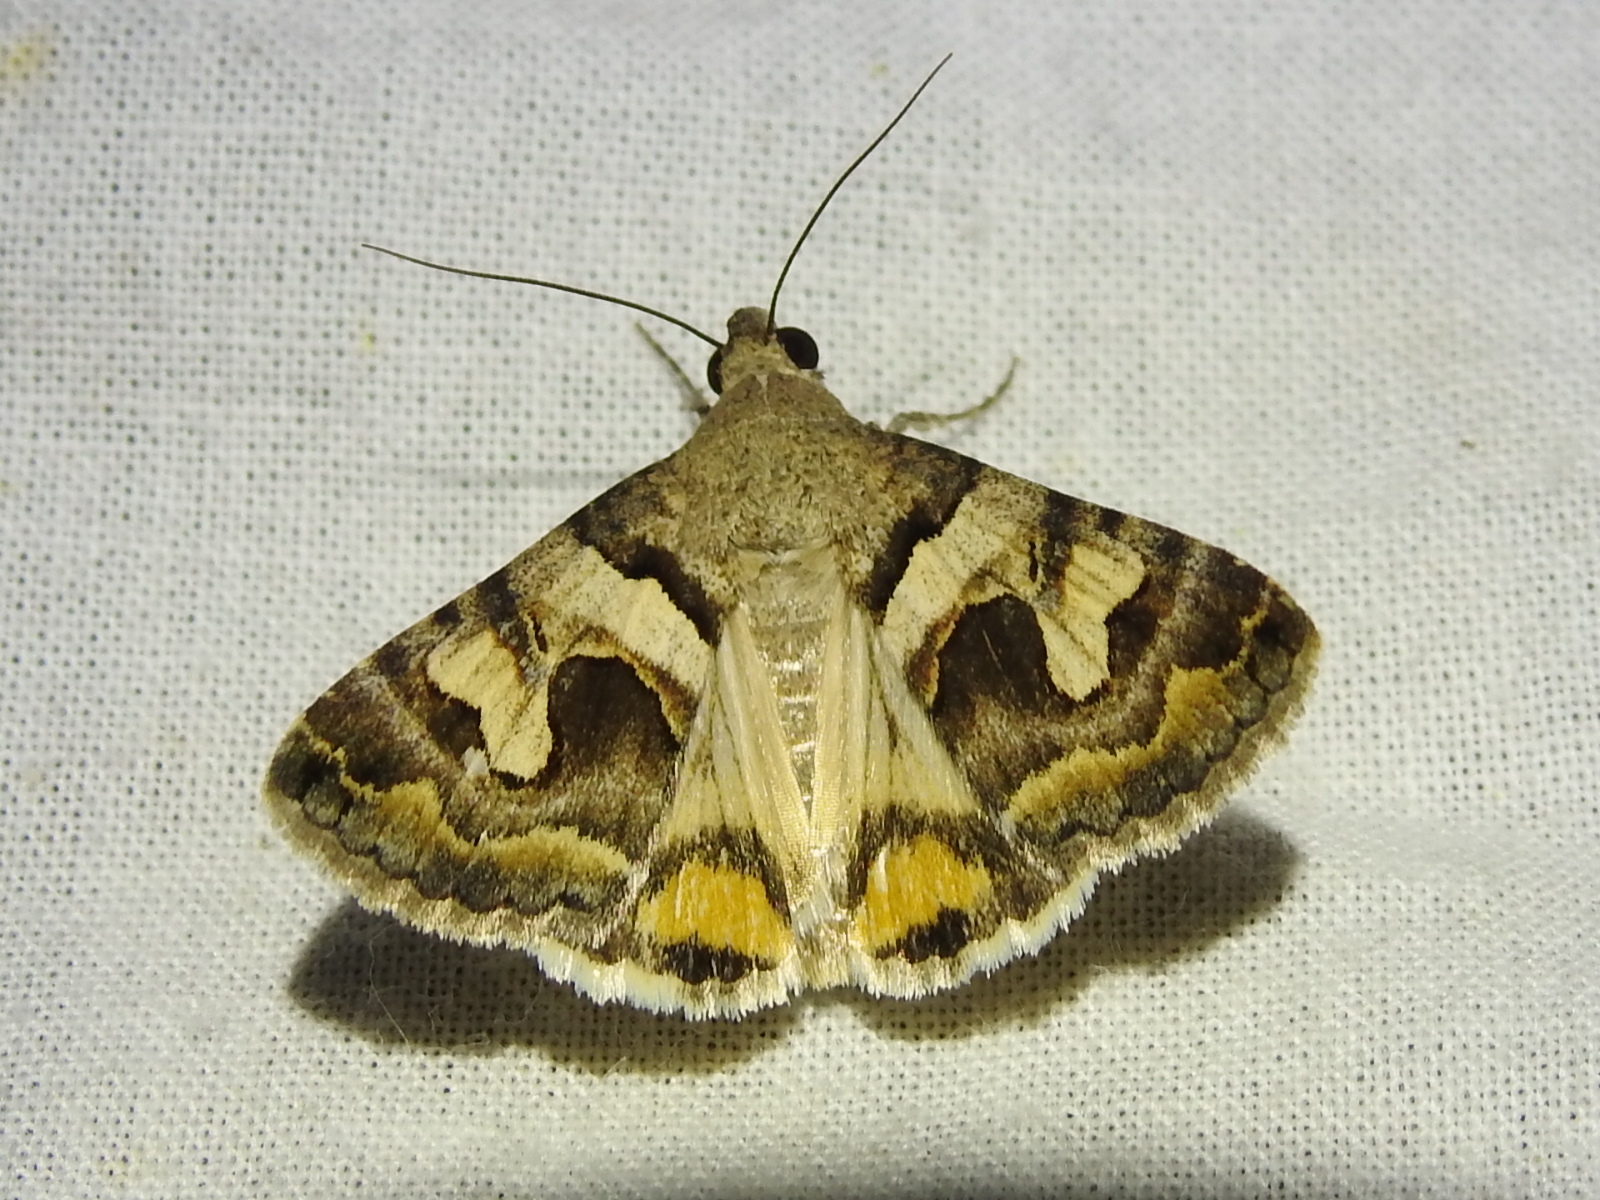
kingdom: Animalia
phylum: Arthropoda
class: Insecta
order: Lepidoptera
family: Erebidae
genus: Bulia
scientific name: Bulia deducta
